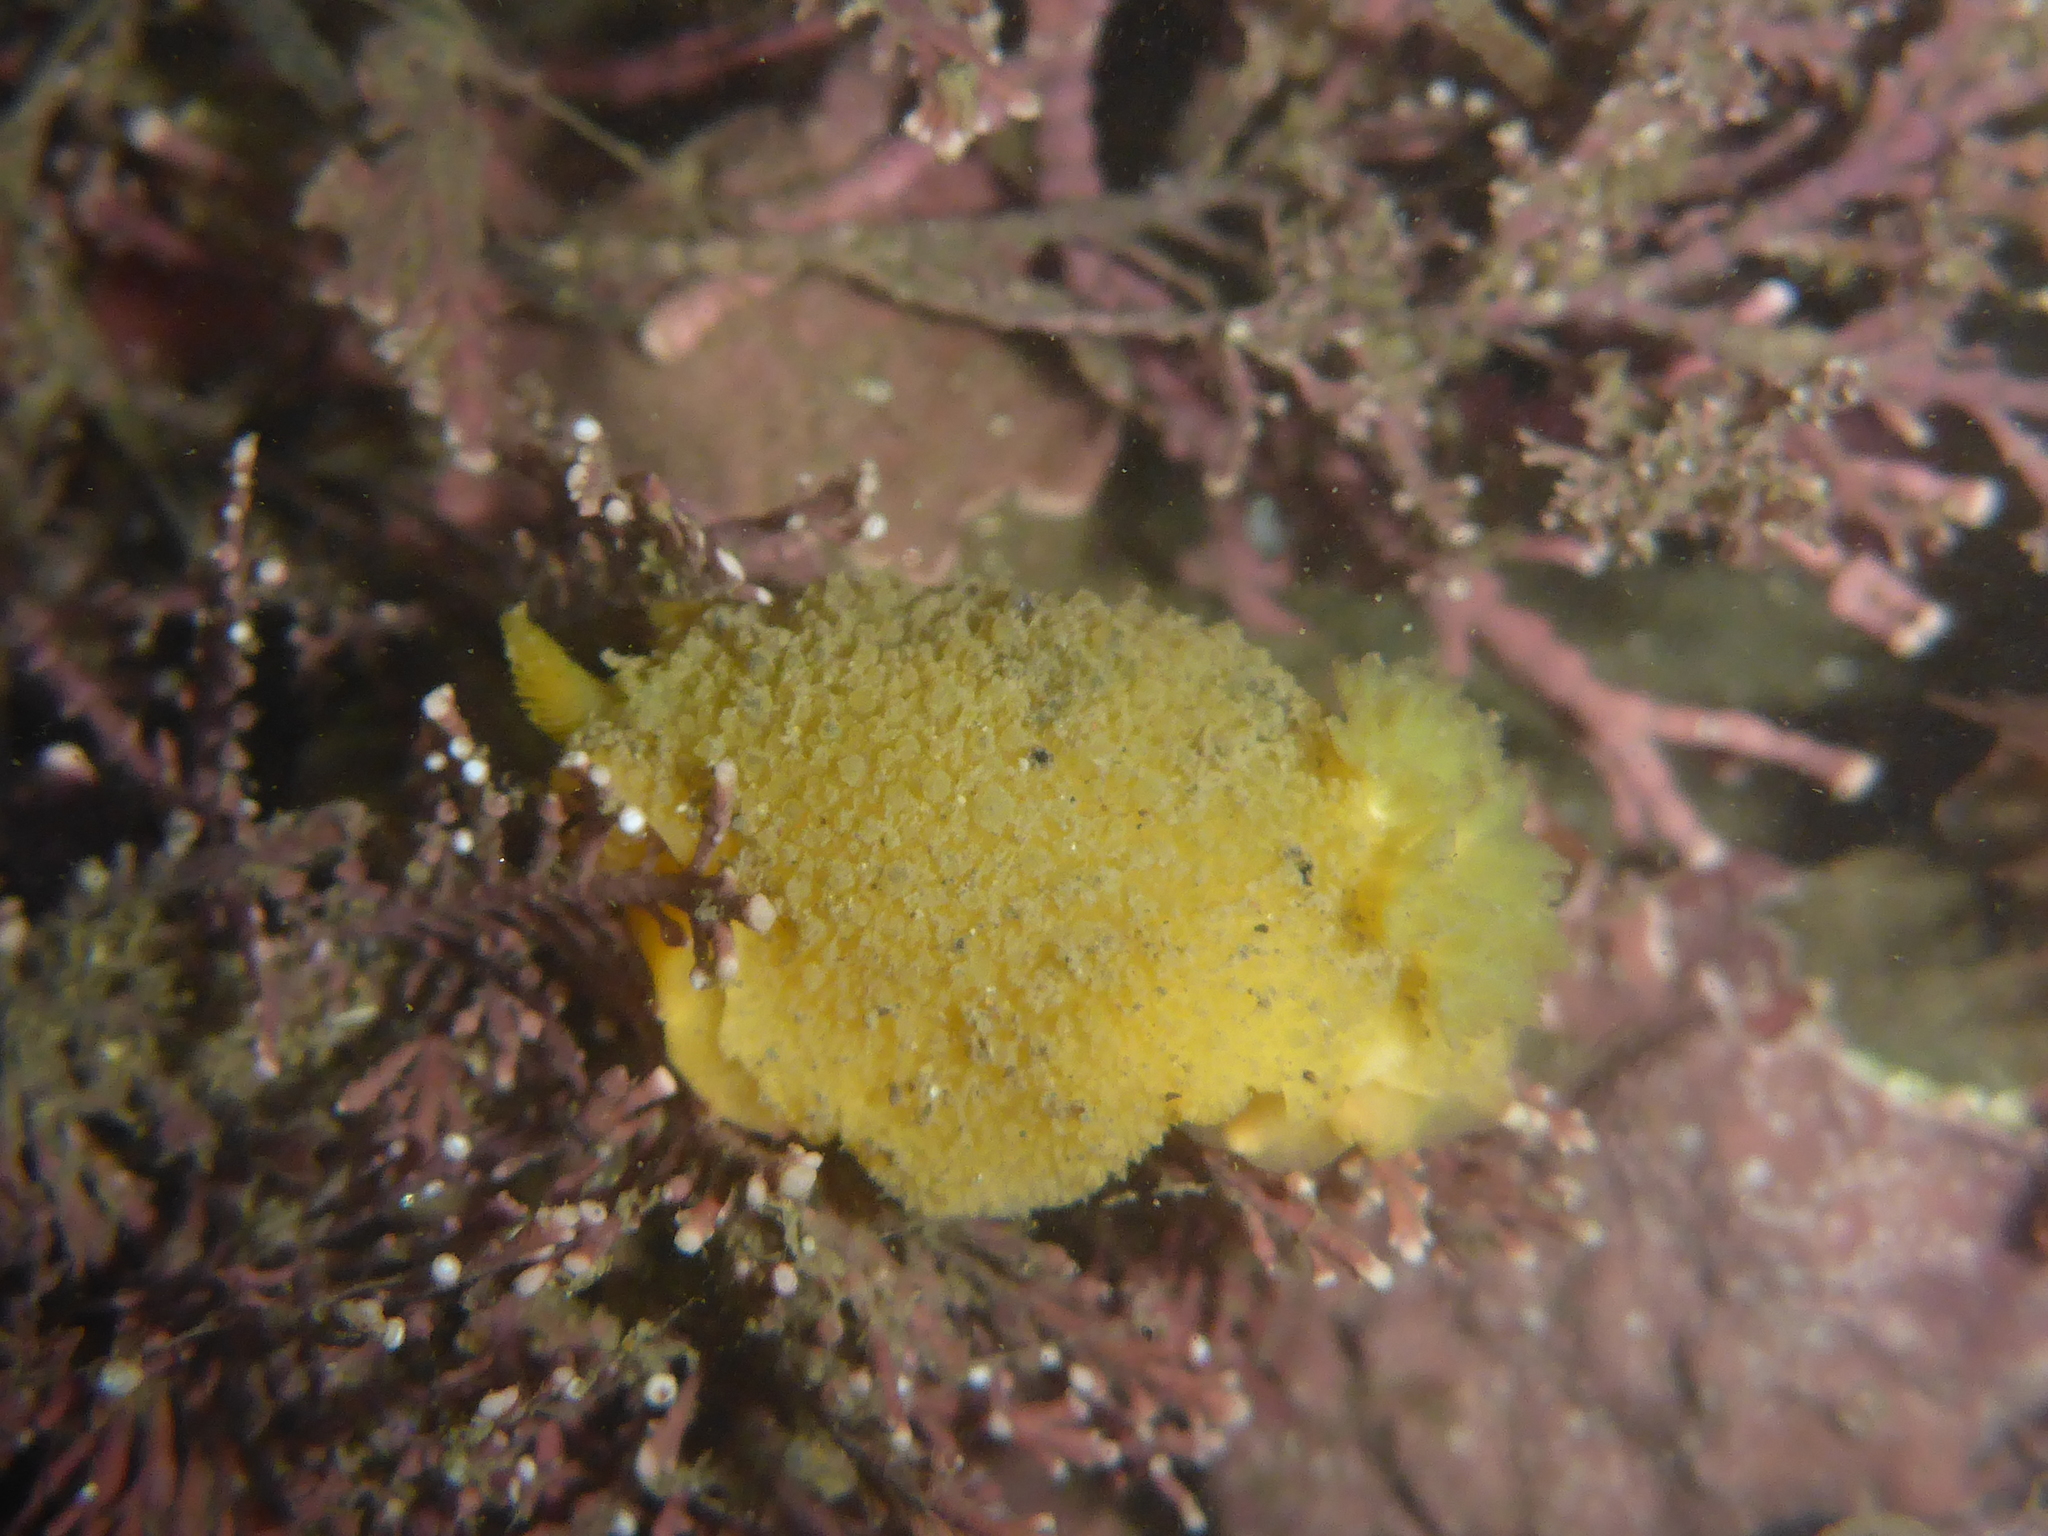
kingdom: Animalia
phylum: Mollusca
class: Gastropoda
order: Nudibranchia
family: Dorididae
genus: Doris
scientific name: Doris montereyensis
